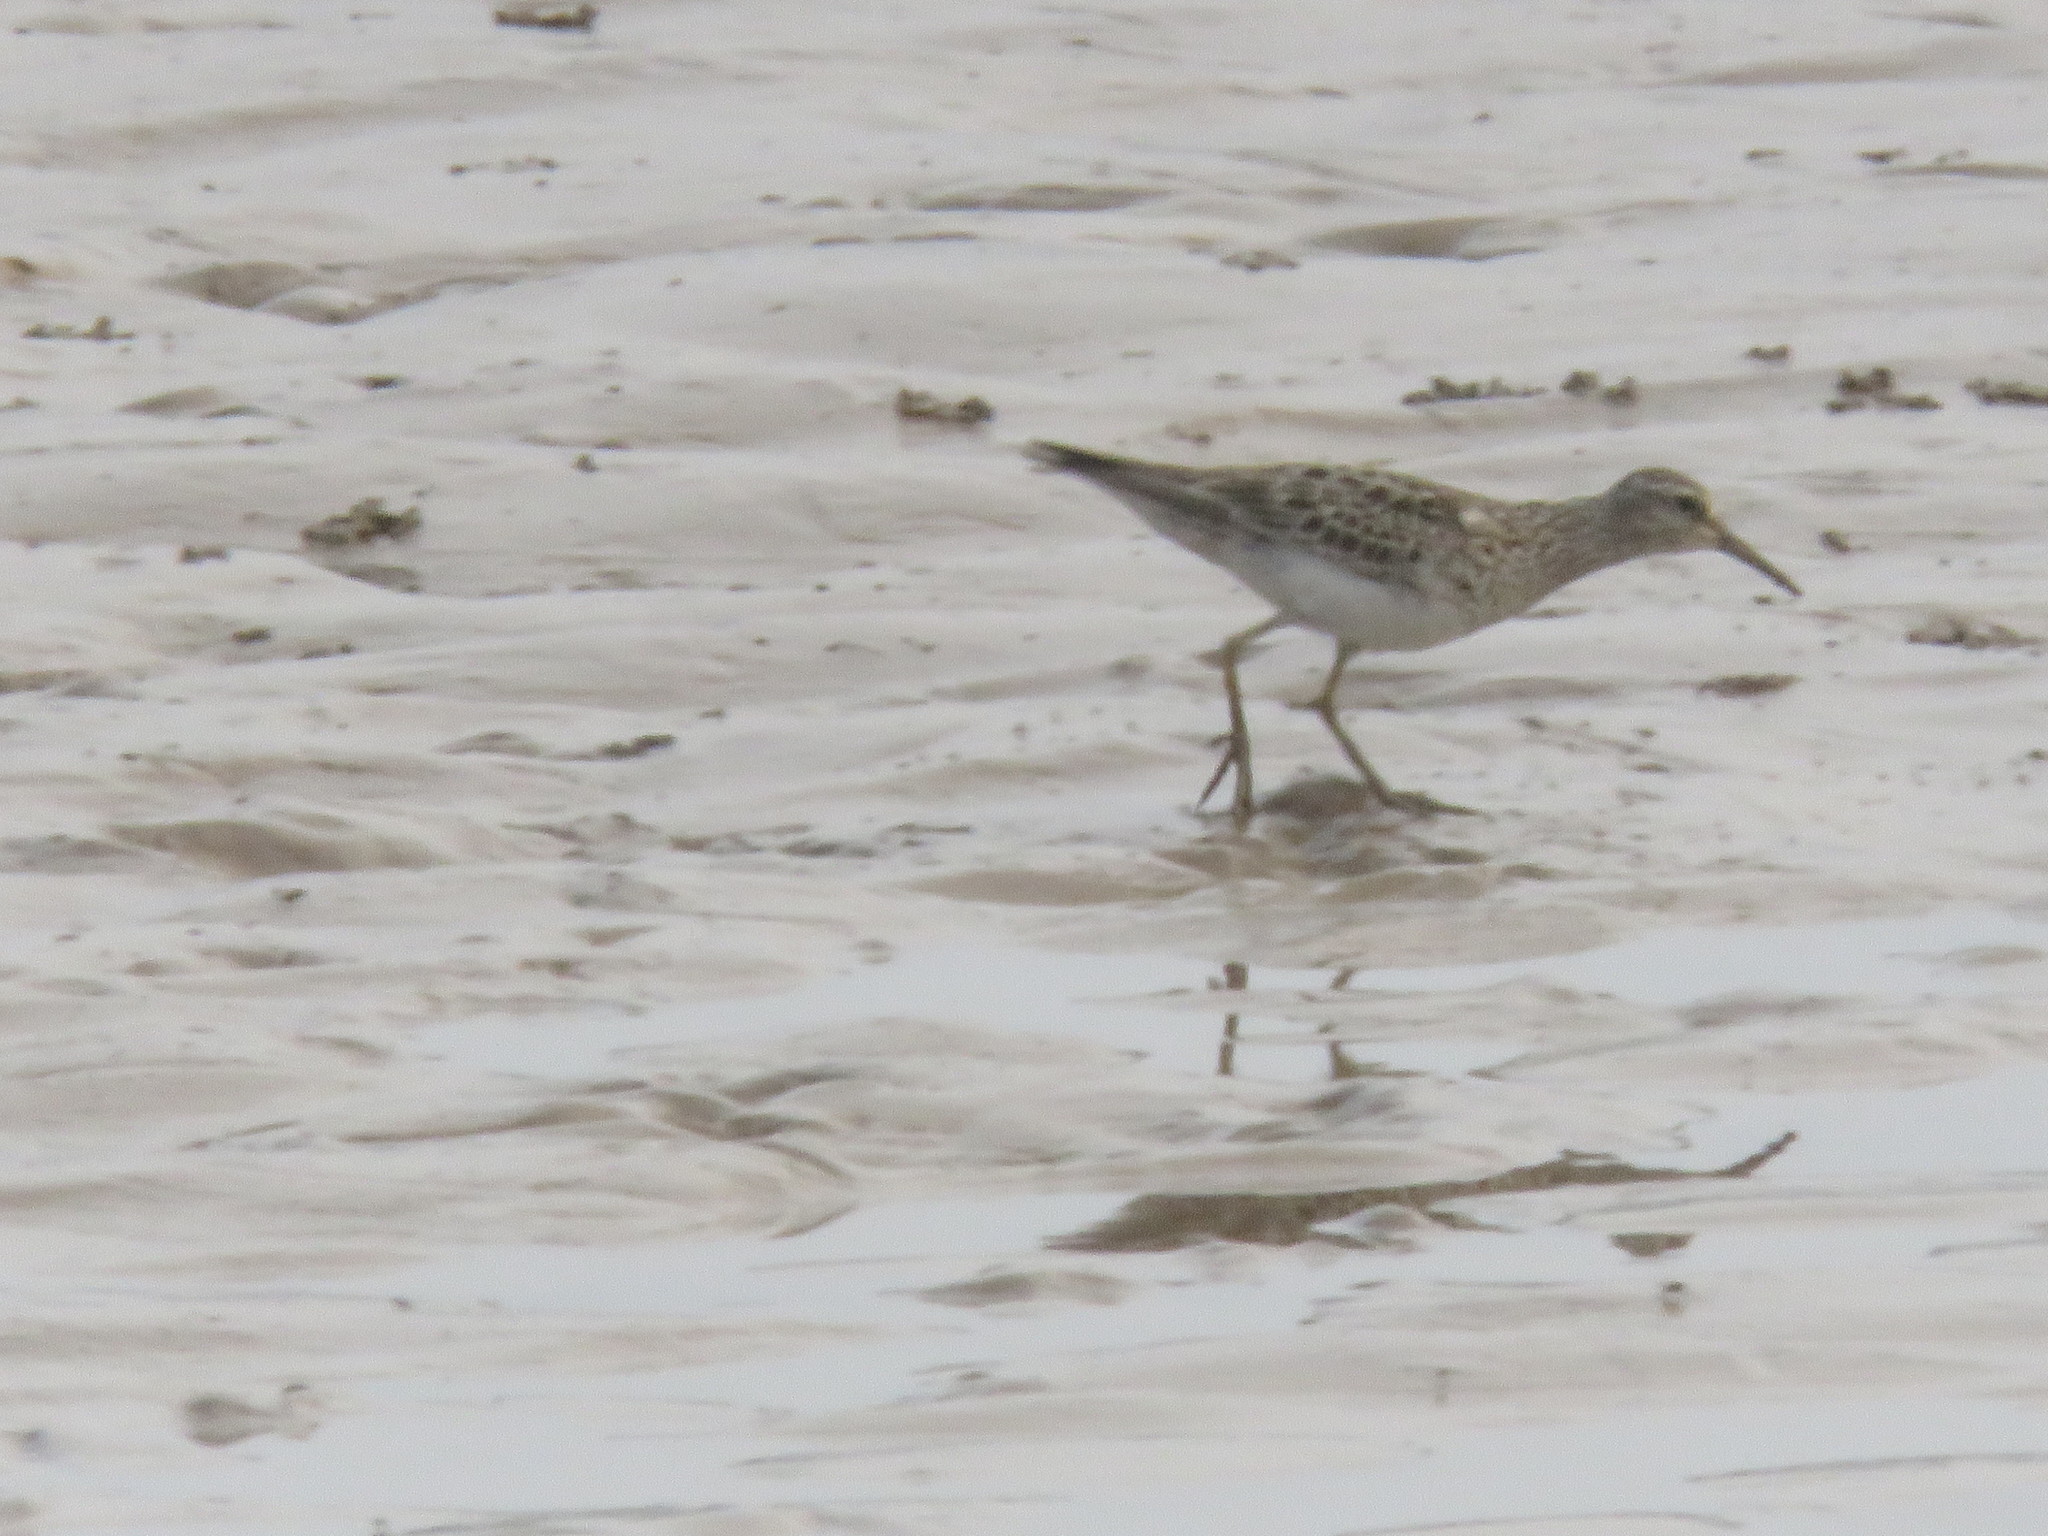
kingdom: Animalia
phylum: Chordata
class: Aves
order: Charadriiformes
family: Scolopacidae
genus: Calidris
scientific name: Calidris melanotos
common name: Pectoral sandpiper
